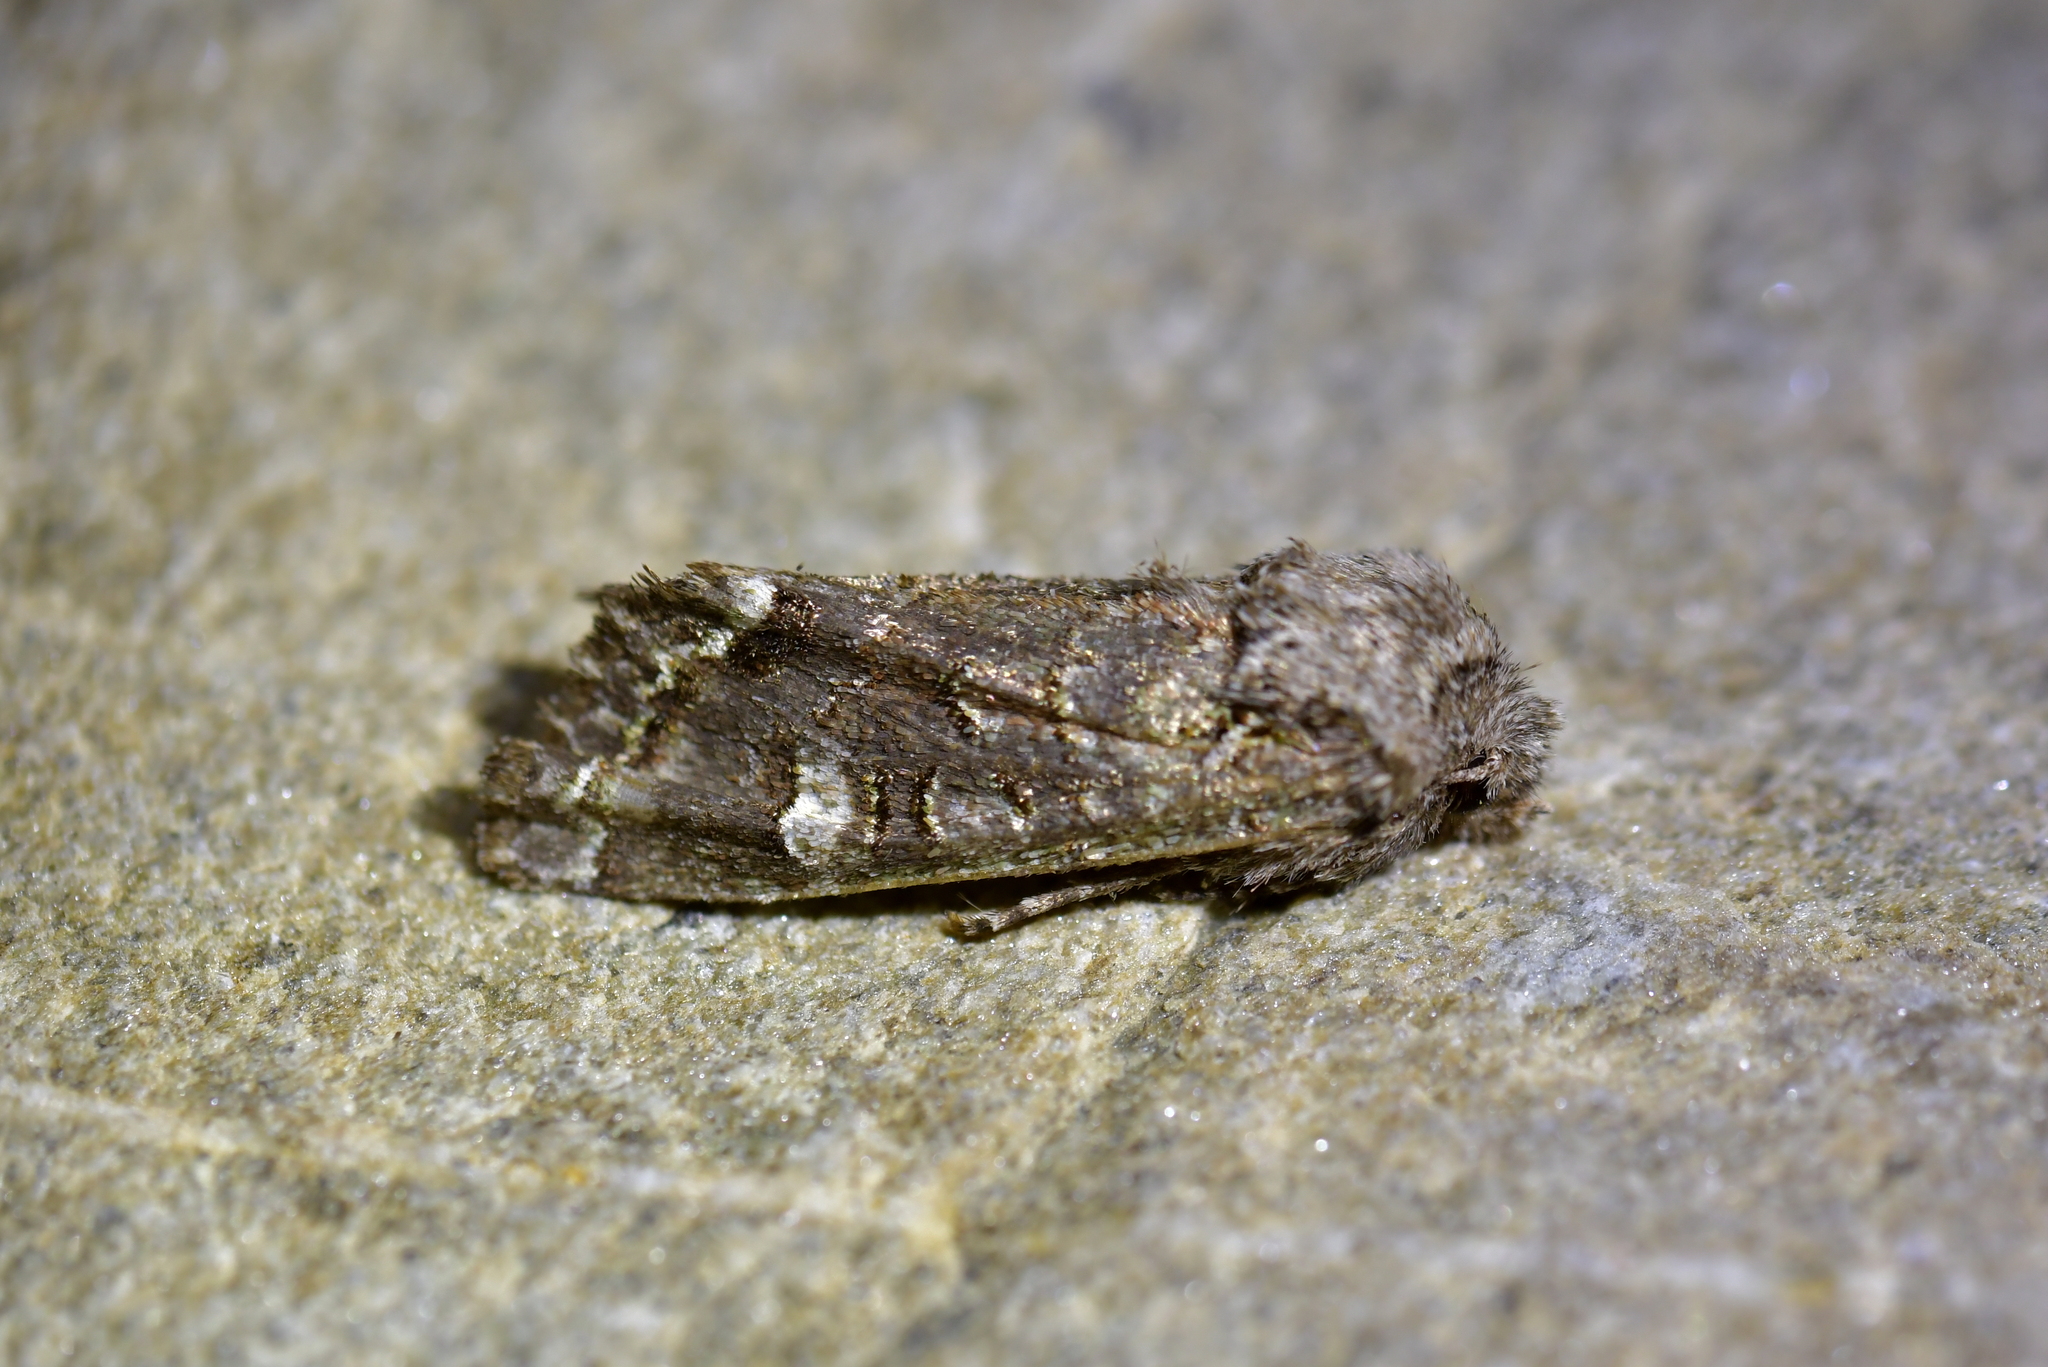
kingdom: Animalia
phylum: Arthropoda
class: Insecta
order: Lepidoptera
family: Noctuidae
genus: Ichneutica
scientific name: Ichneutica skelloni
